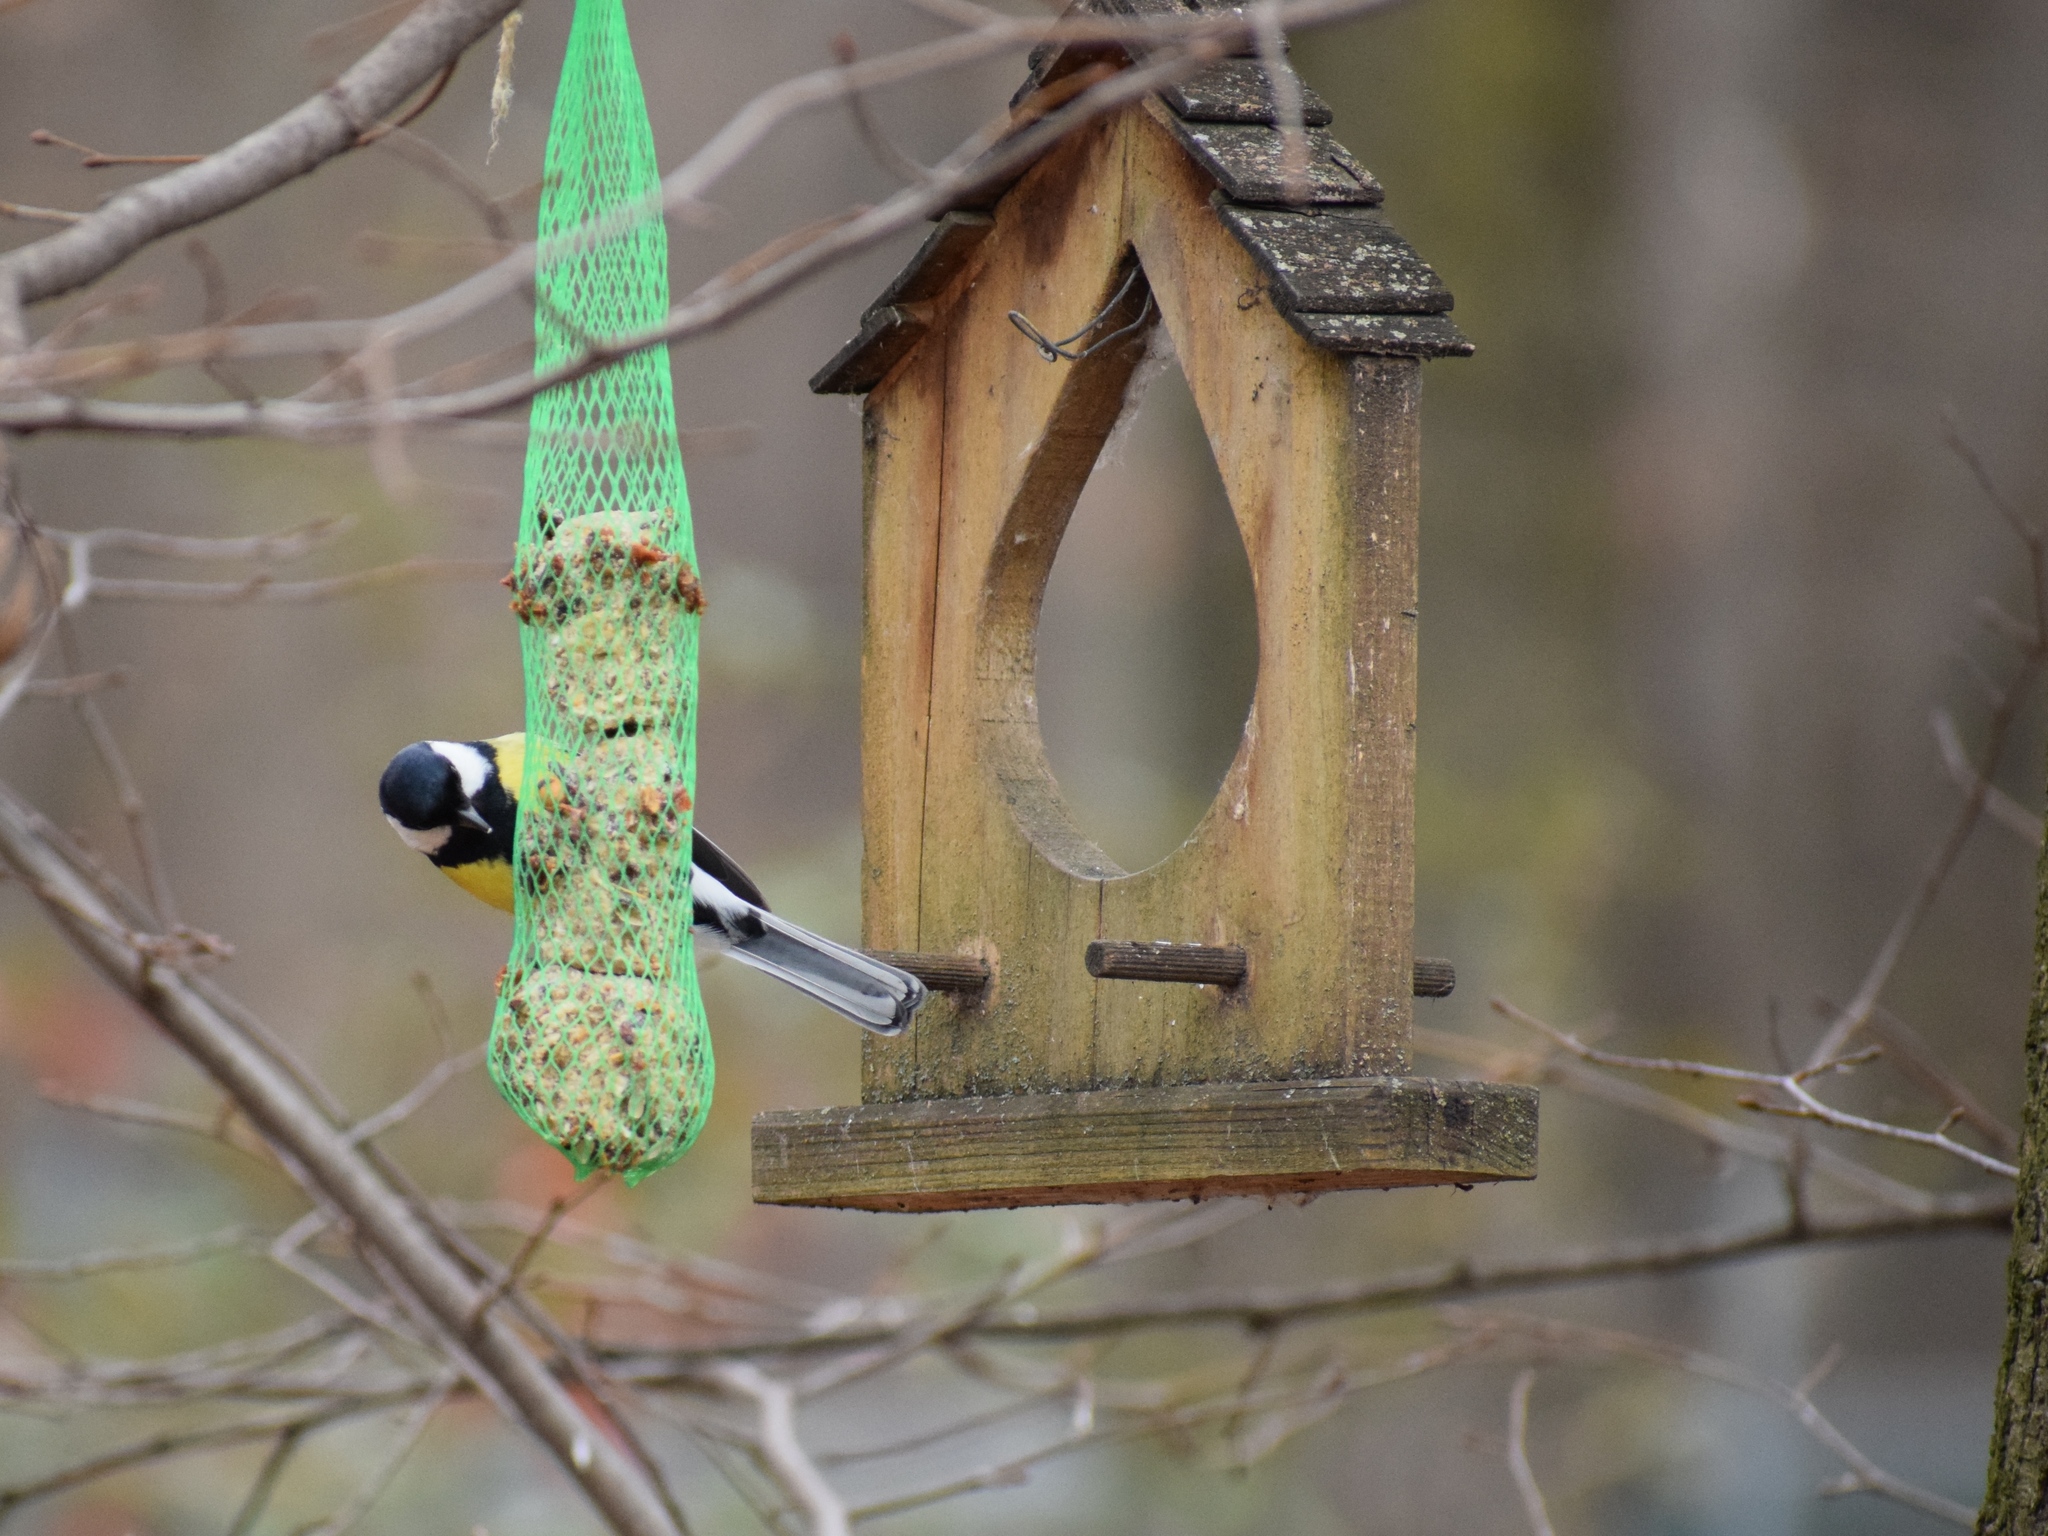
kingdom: Animalia
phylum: Chordata
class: Aves
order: Passeriformes
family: Paridae
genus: Parus
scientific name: Parus major
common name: Great tit
